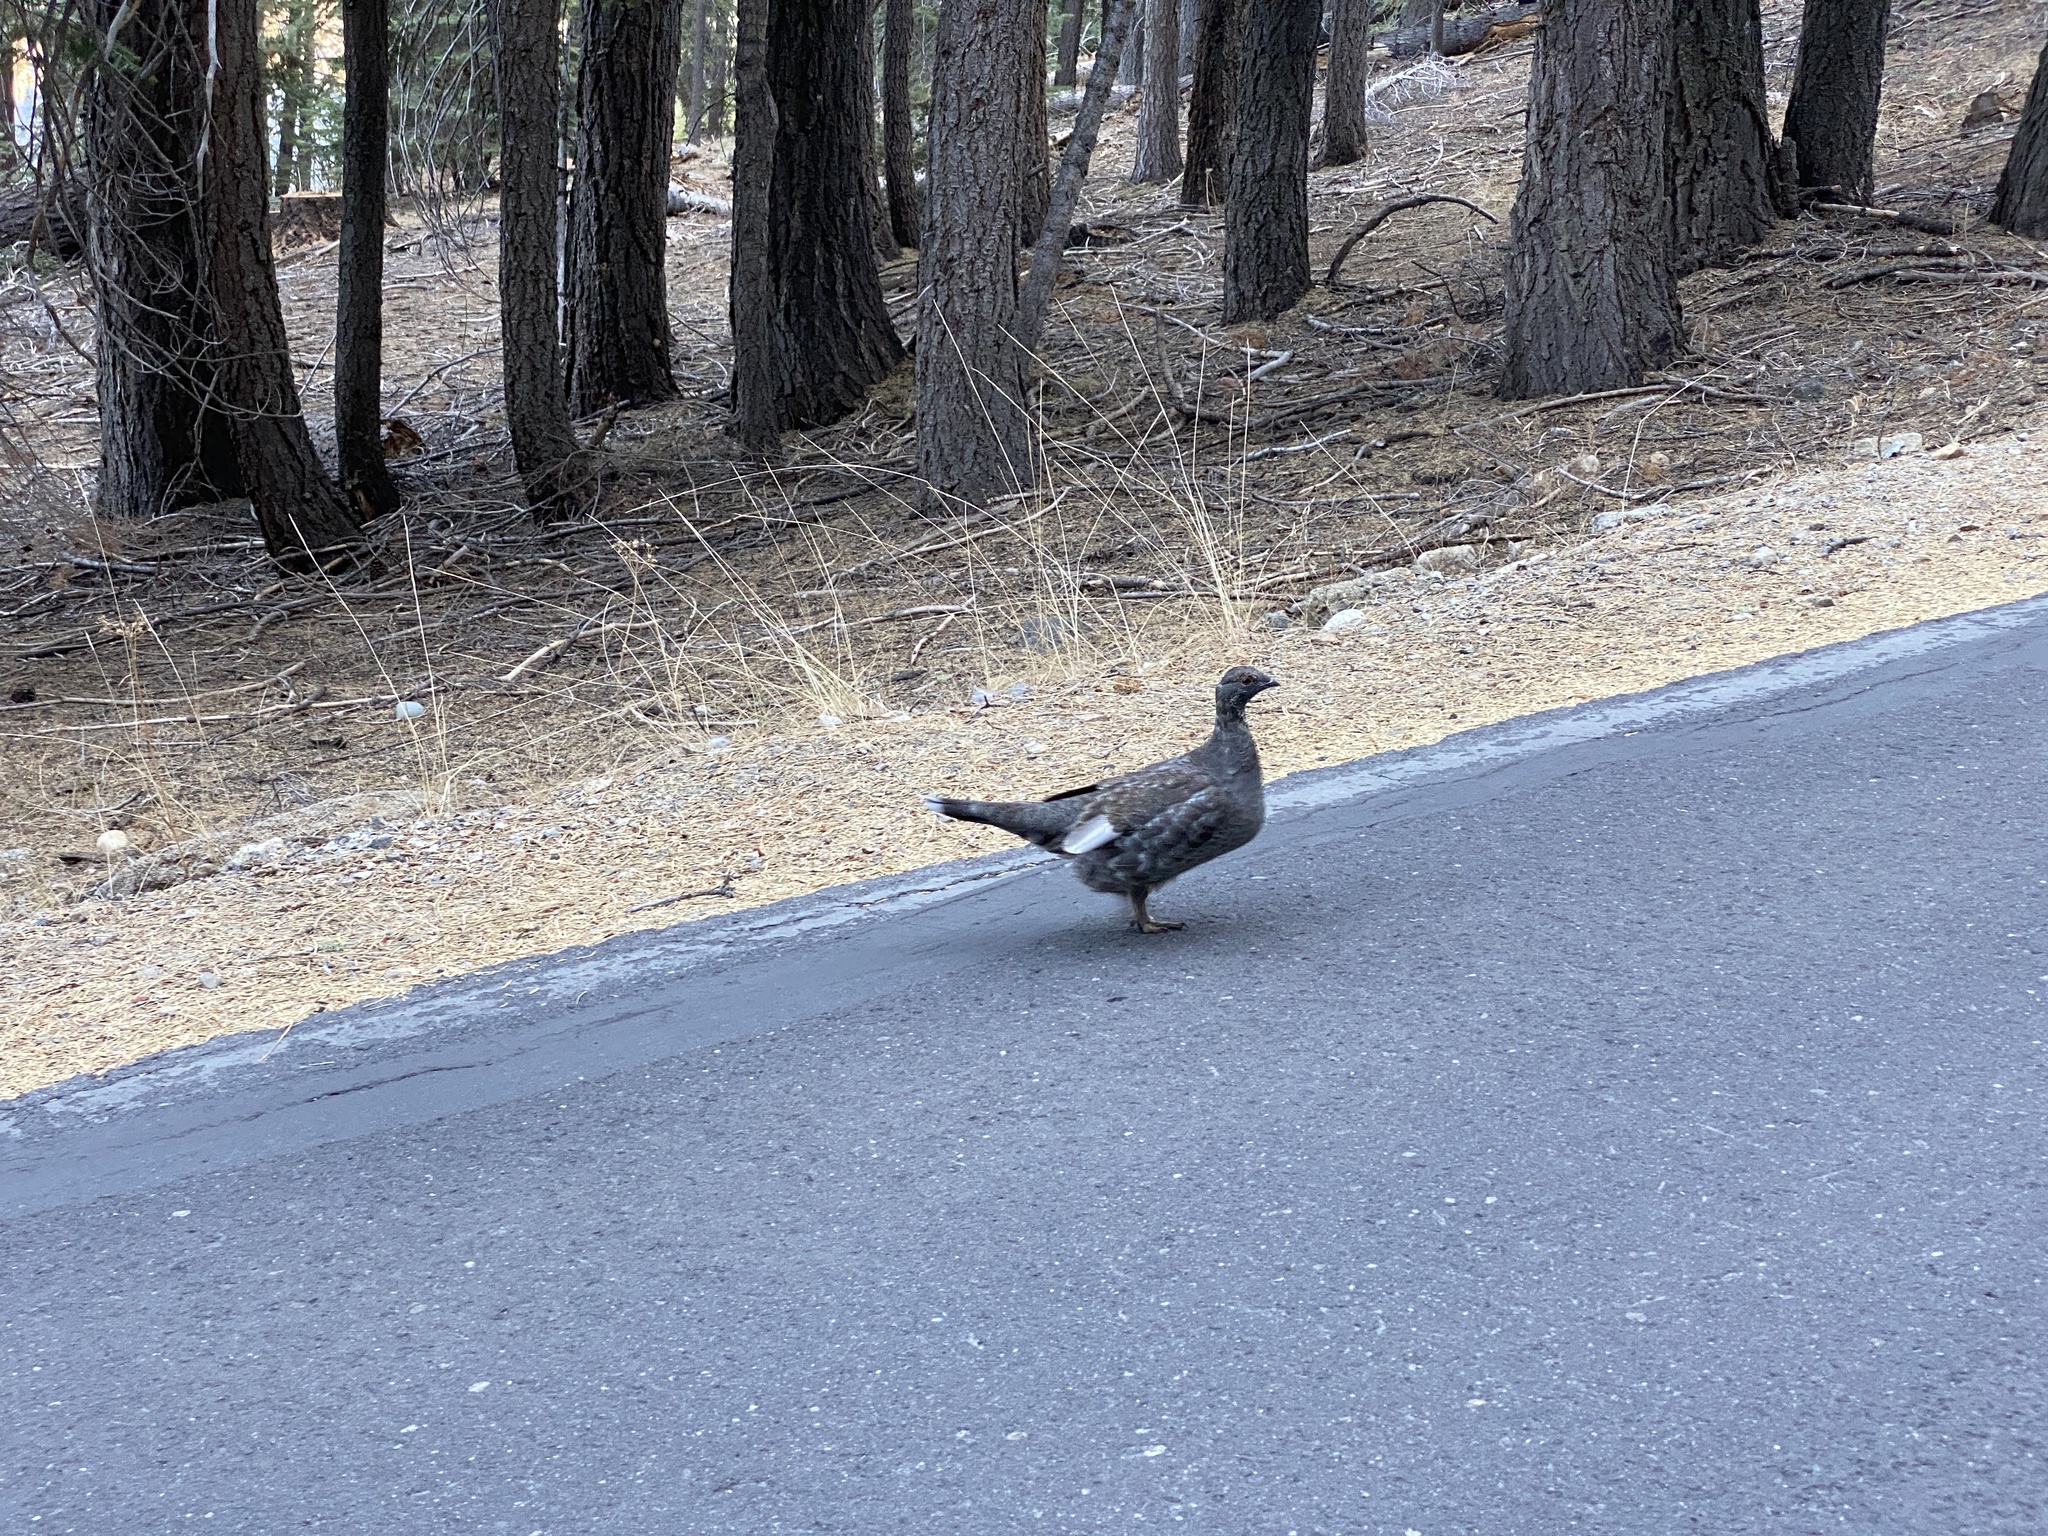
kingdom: Animalia
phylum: Chordata
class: Aves
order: Galliformes
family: Phasianidae
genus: Dendragapus
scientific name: Dendragapus fuliginosus
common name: Sooty grouse
